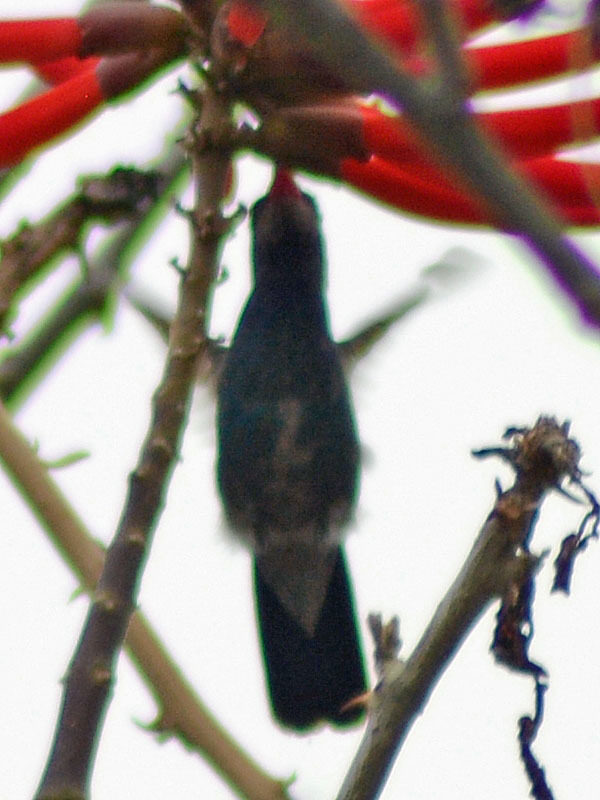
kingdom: Animalia
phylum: Chordata
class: Aves
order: Apodiformes
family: Trochilidae
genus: Cynanthus
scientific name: Cynanthus latirostris
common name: Broad-billed hummingbird
